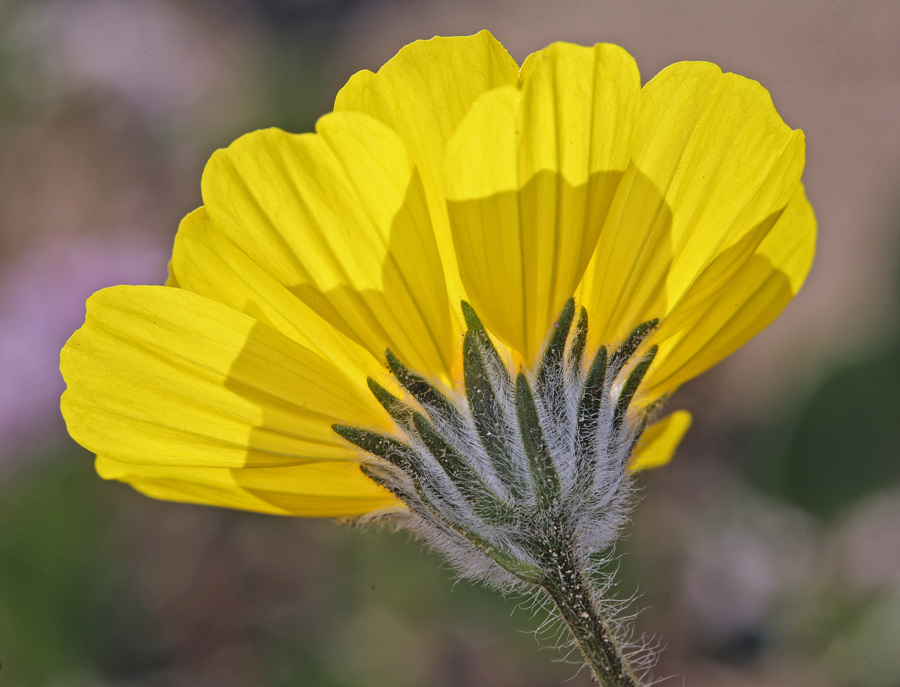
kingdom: Plantae
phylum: Tracheophyta
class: Magnoliopsida
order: Asterales
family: Asteraceae
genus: Geraea
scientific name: Geraea canescens
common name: Desert-gold
